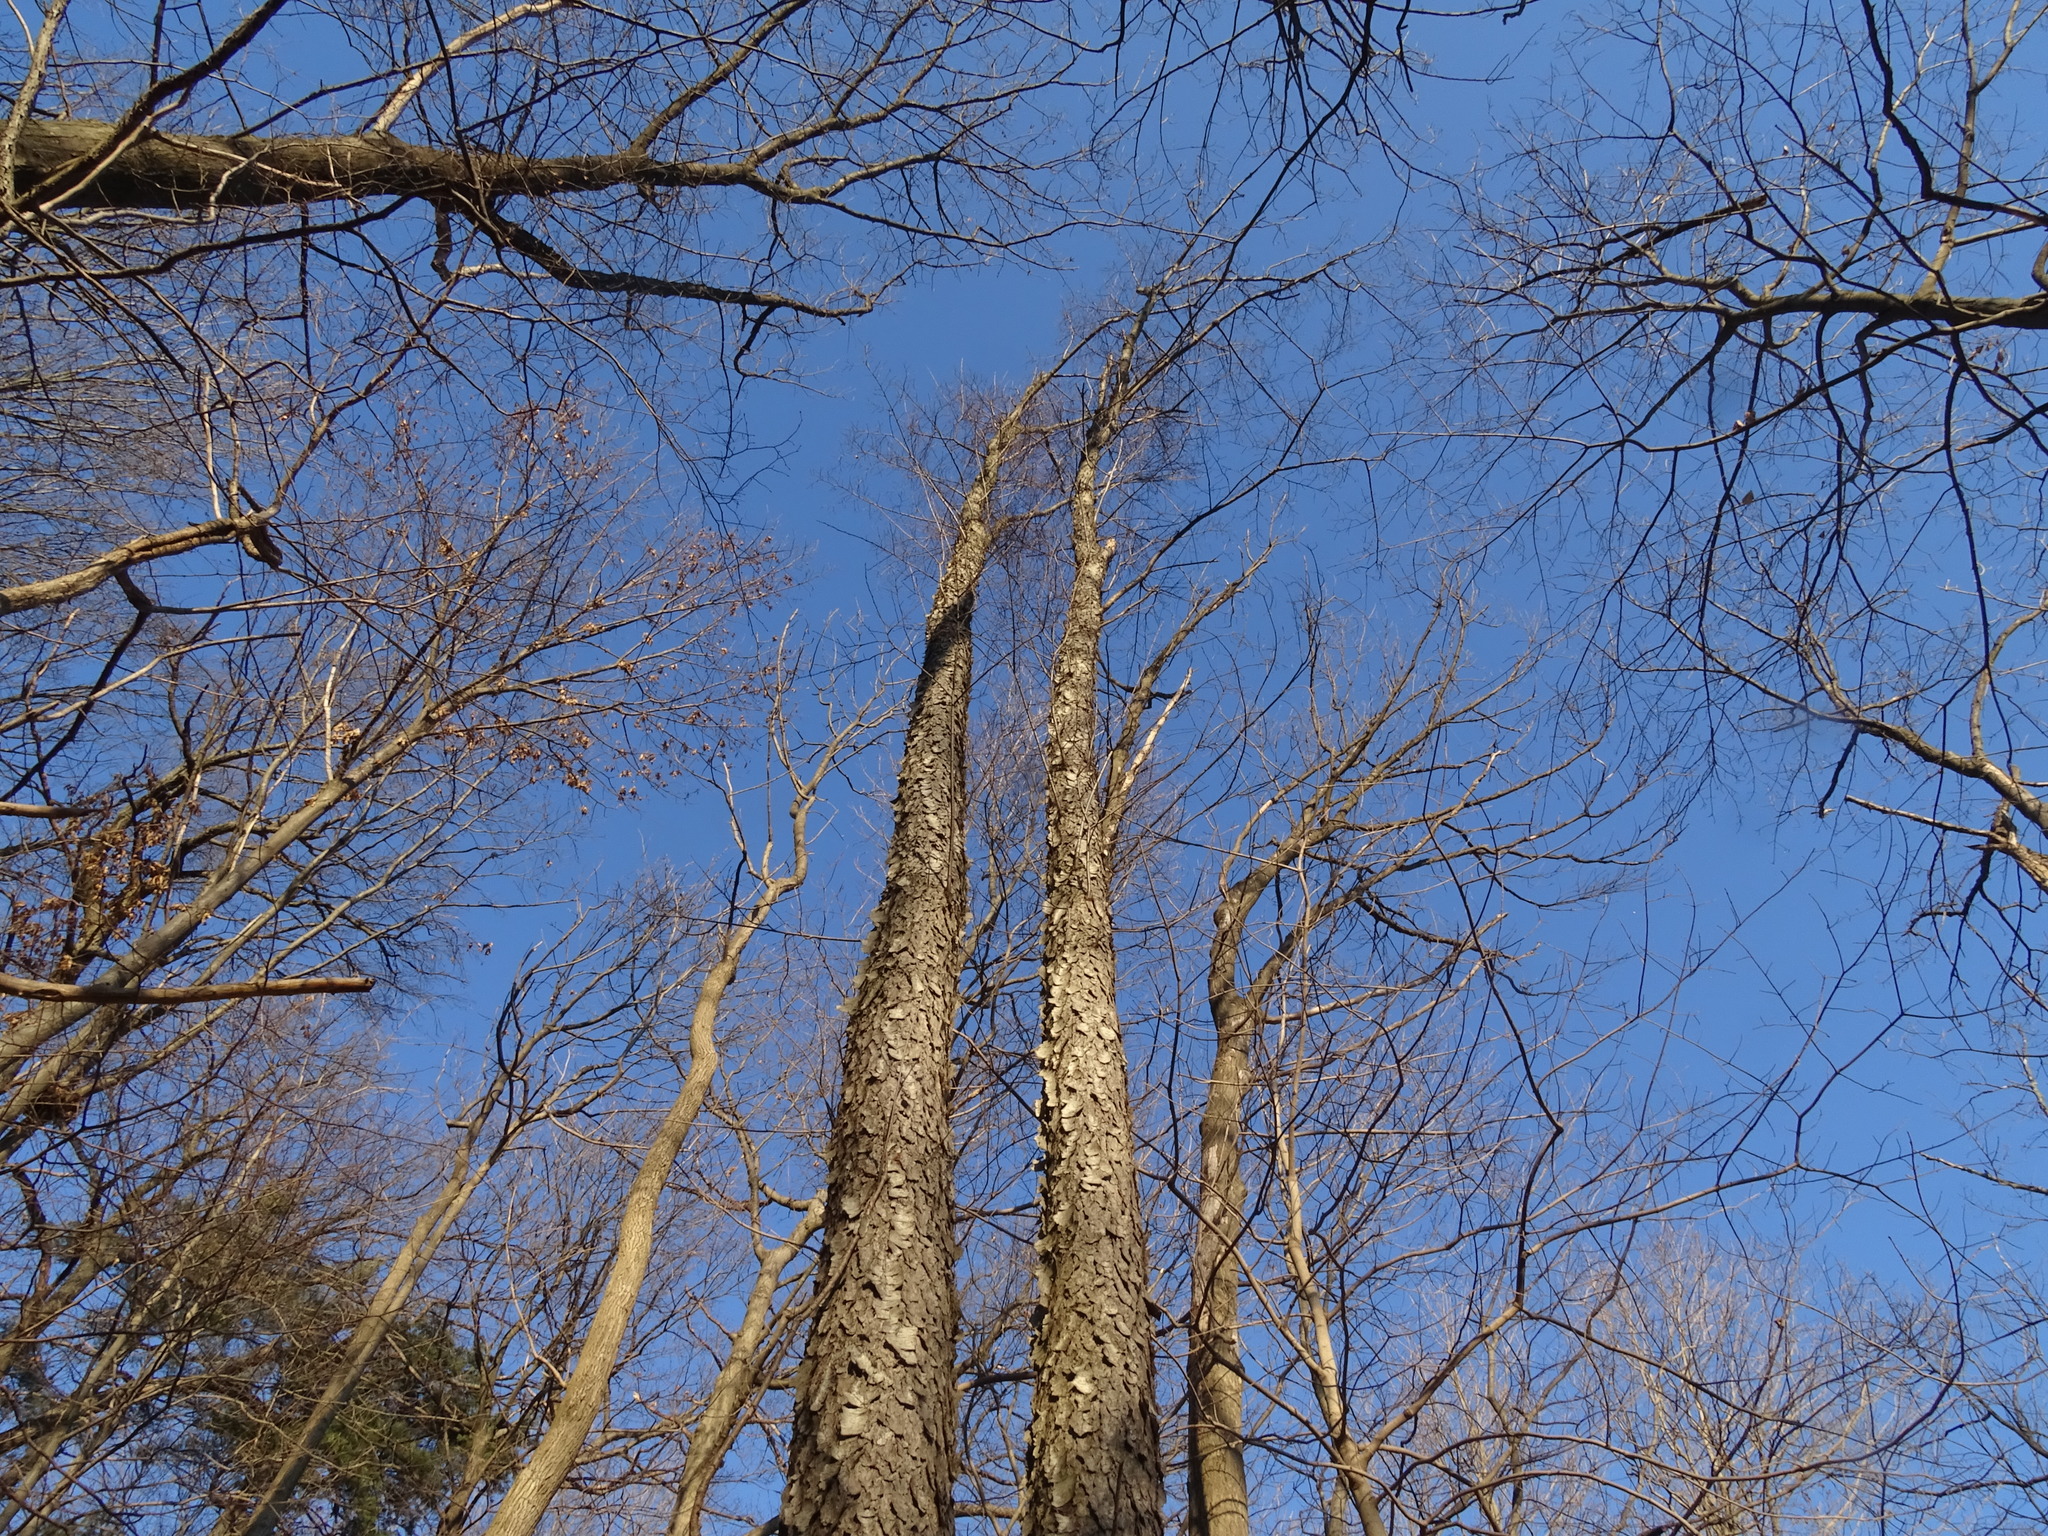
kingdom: Plantae
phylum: Tracheophyta
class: Magnoliopsida
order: Rosales
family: Rosaceae
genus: Prunus
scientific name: Prunus serotina
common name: Black cherry
